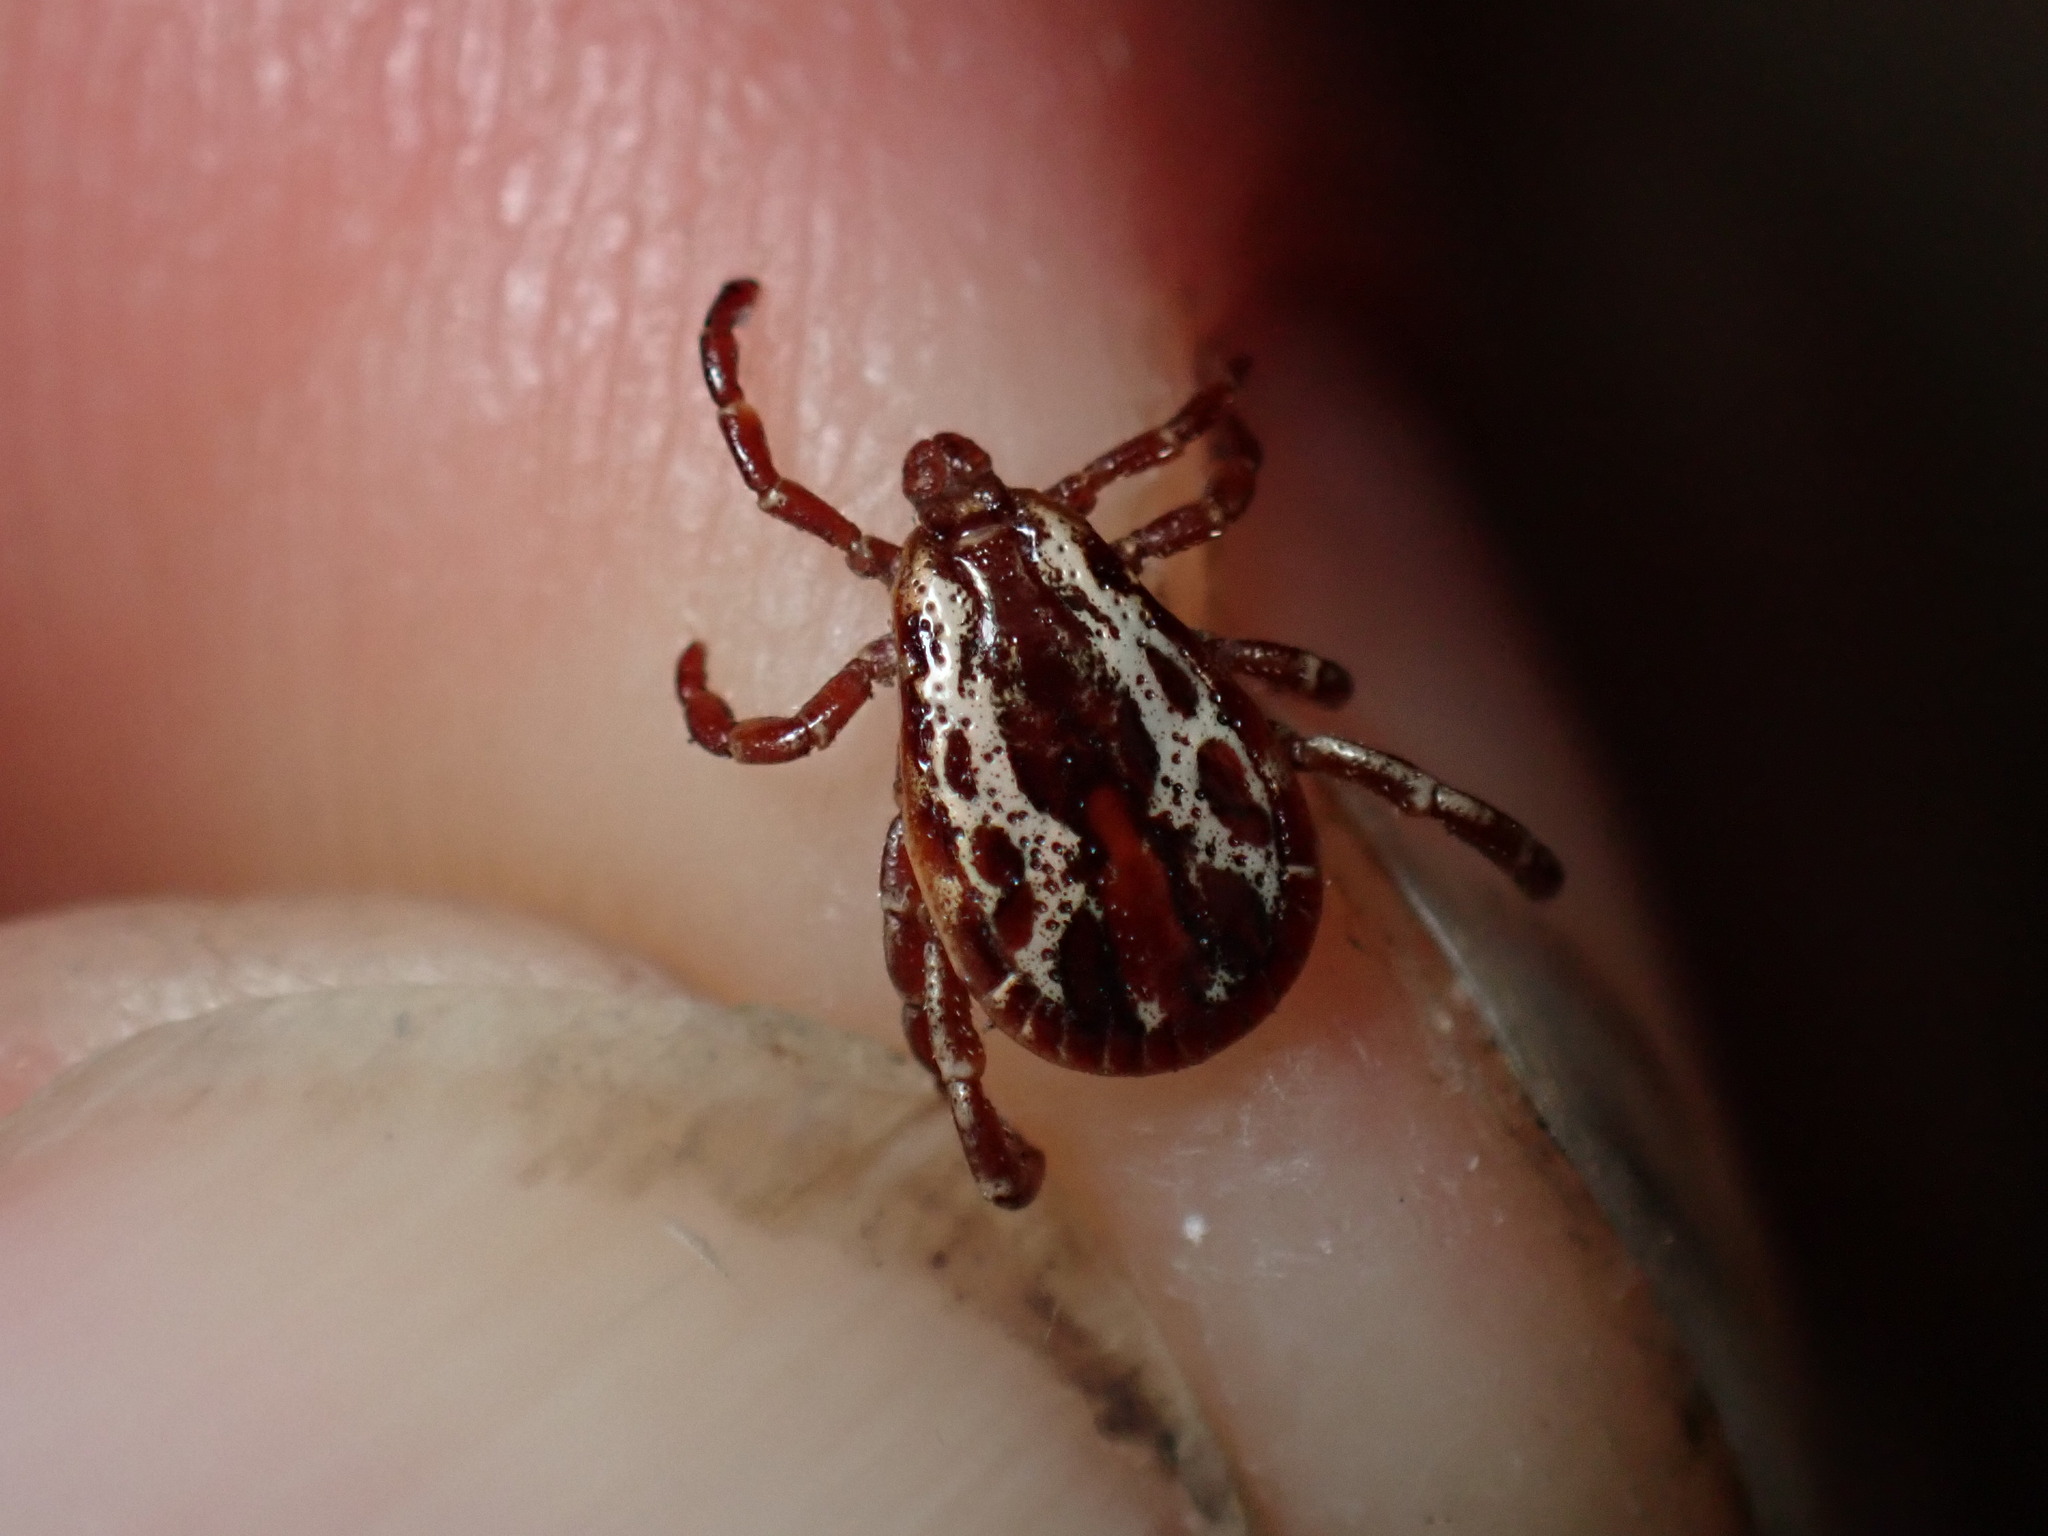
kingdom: Animalia
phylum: Arthropoda
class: Arachnida
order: Ixodida
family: Ixodidae
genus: Dermacentor
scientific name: Dermacentor variabilis
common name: American dog tick
